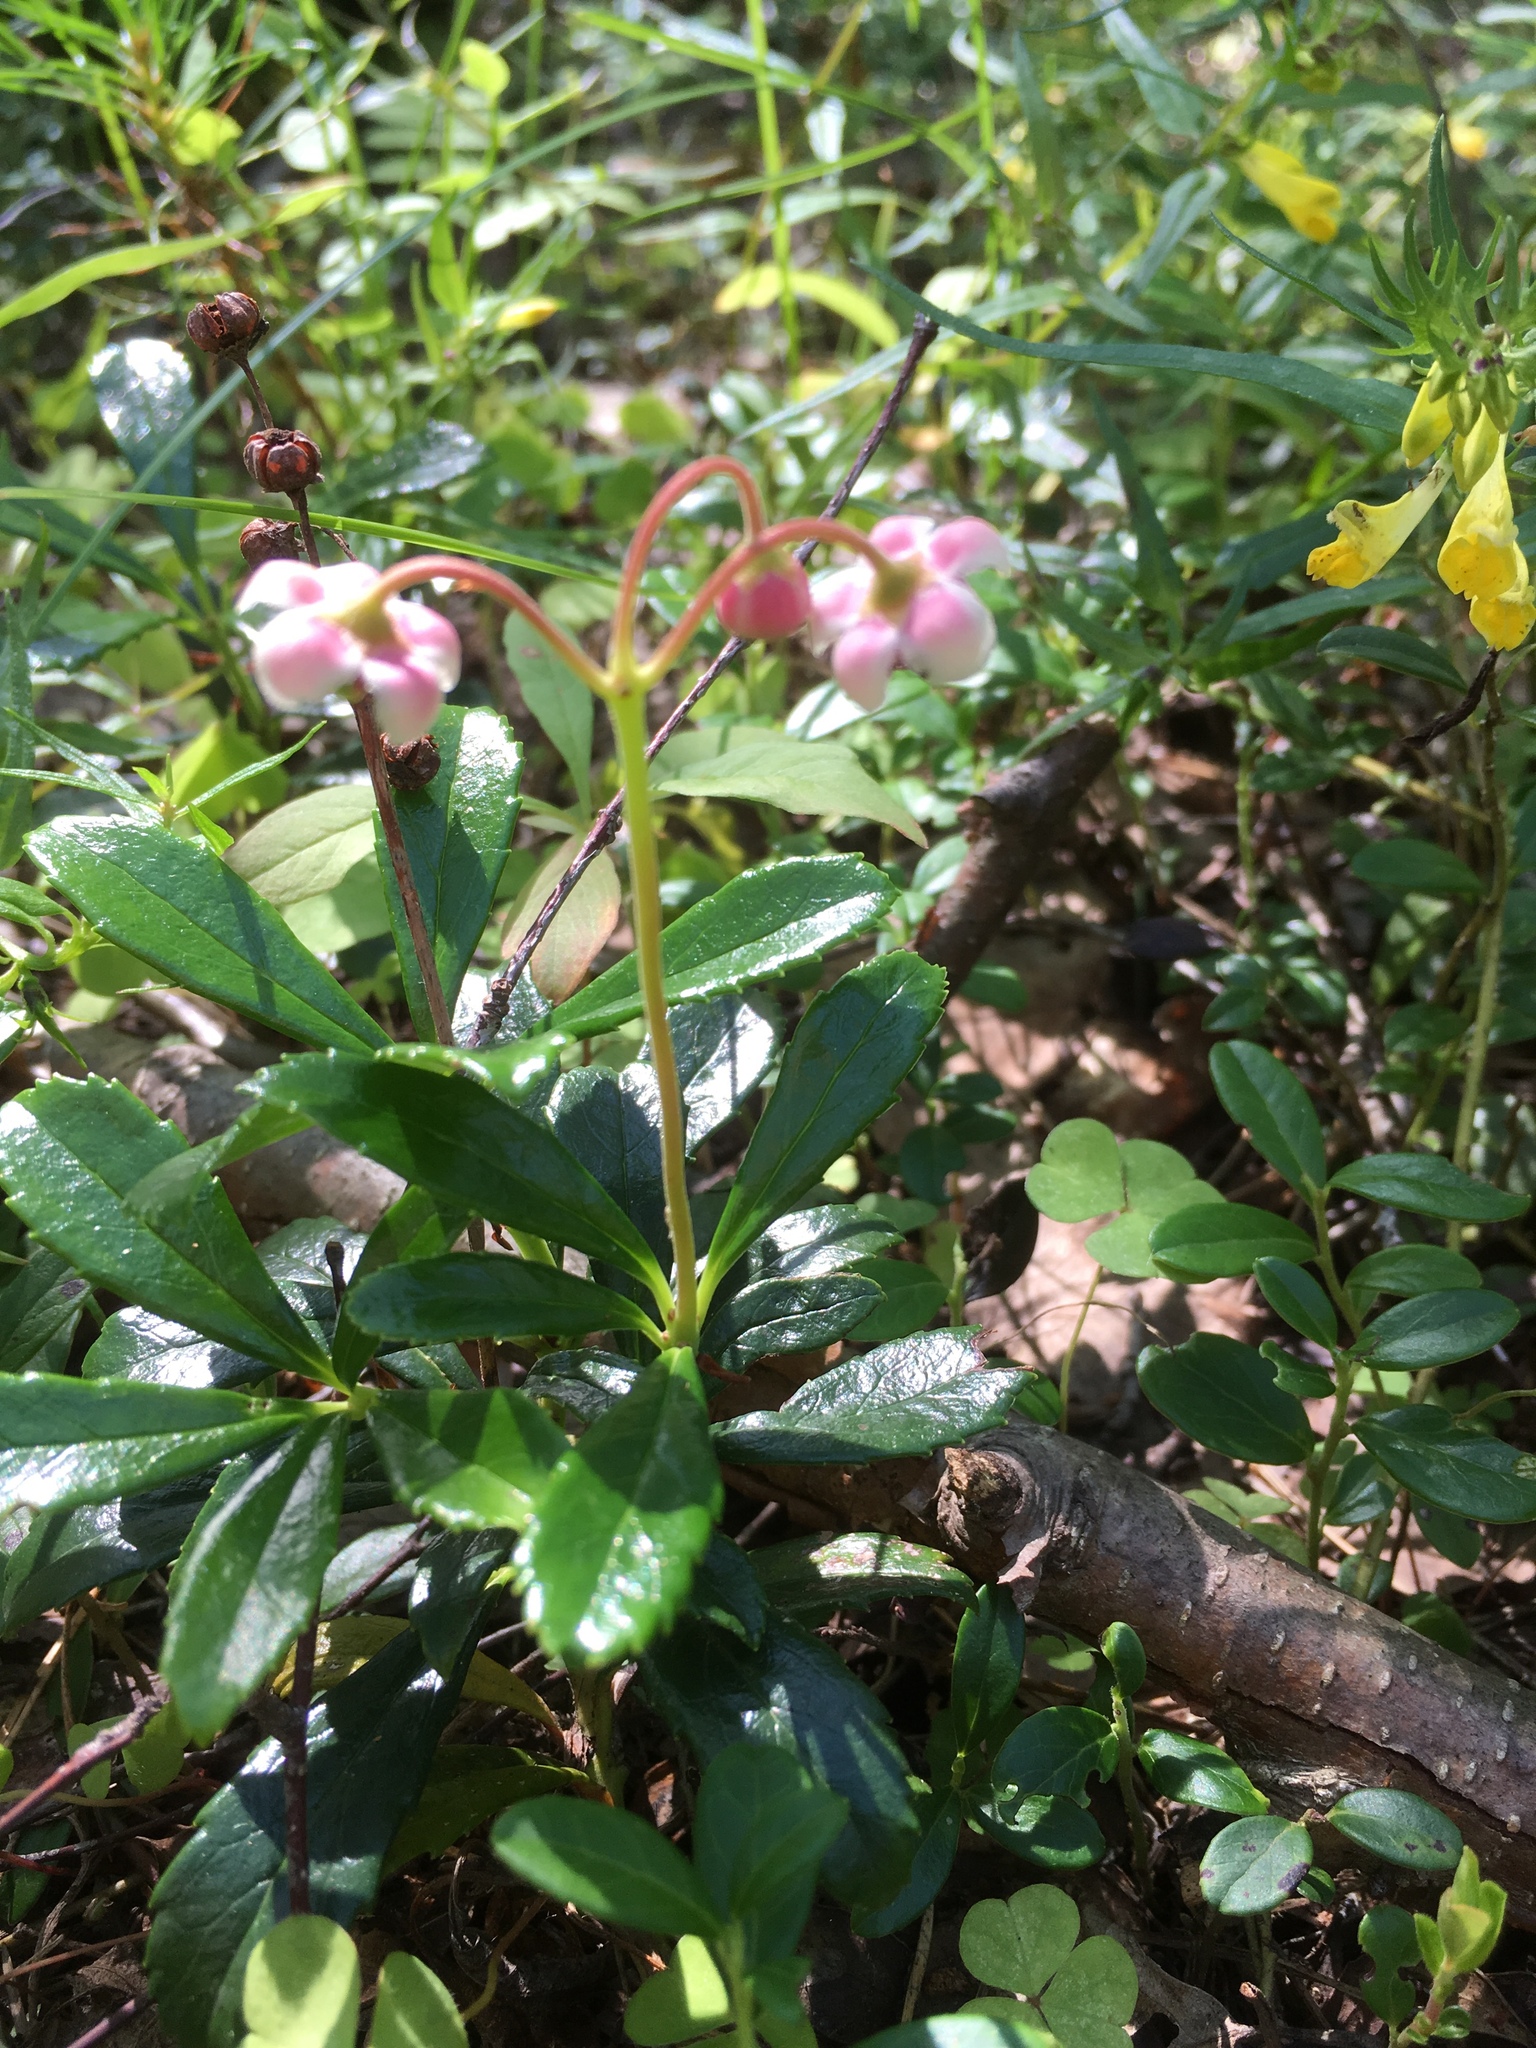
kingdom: Plantae
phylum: Tracheophyta
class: Magnoliopsida
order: Ericales
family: Ericaceae
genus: Chimaphila
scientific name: Chimaphila umbellata
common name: Pipsissewa
